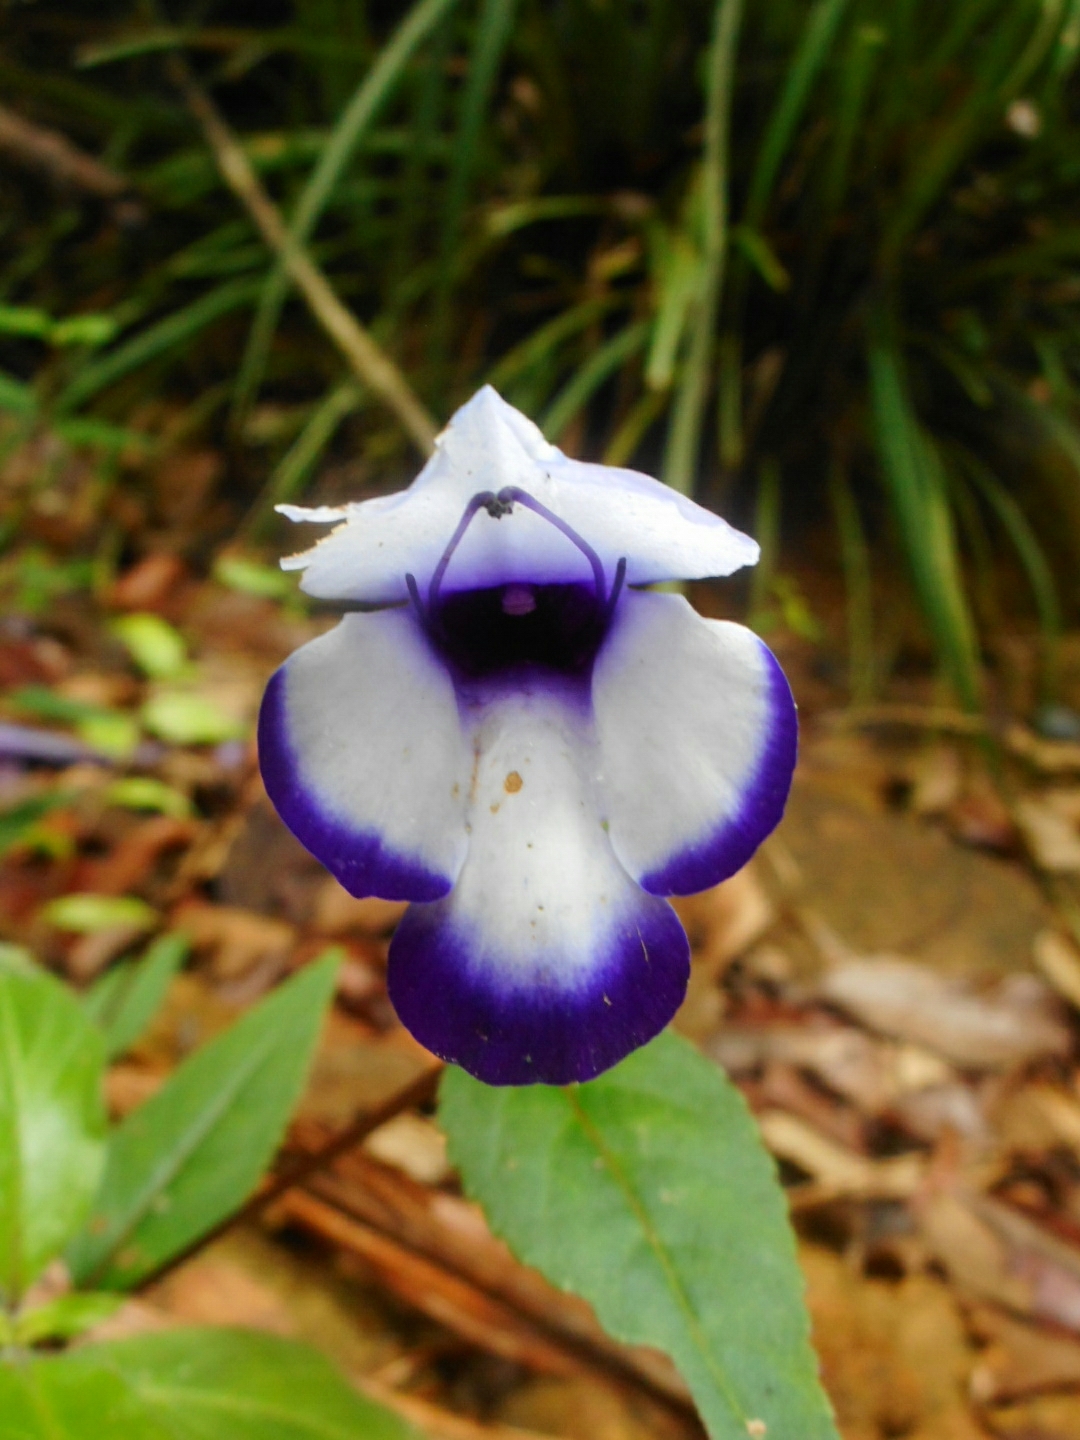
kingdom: Plantae
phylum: Tracheophyta
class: Magnoliopsida
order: Lamiales
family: Linderniaceae
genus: Torenia
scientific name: Torenia fournieri
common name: Bluewings
